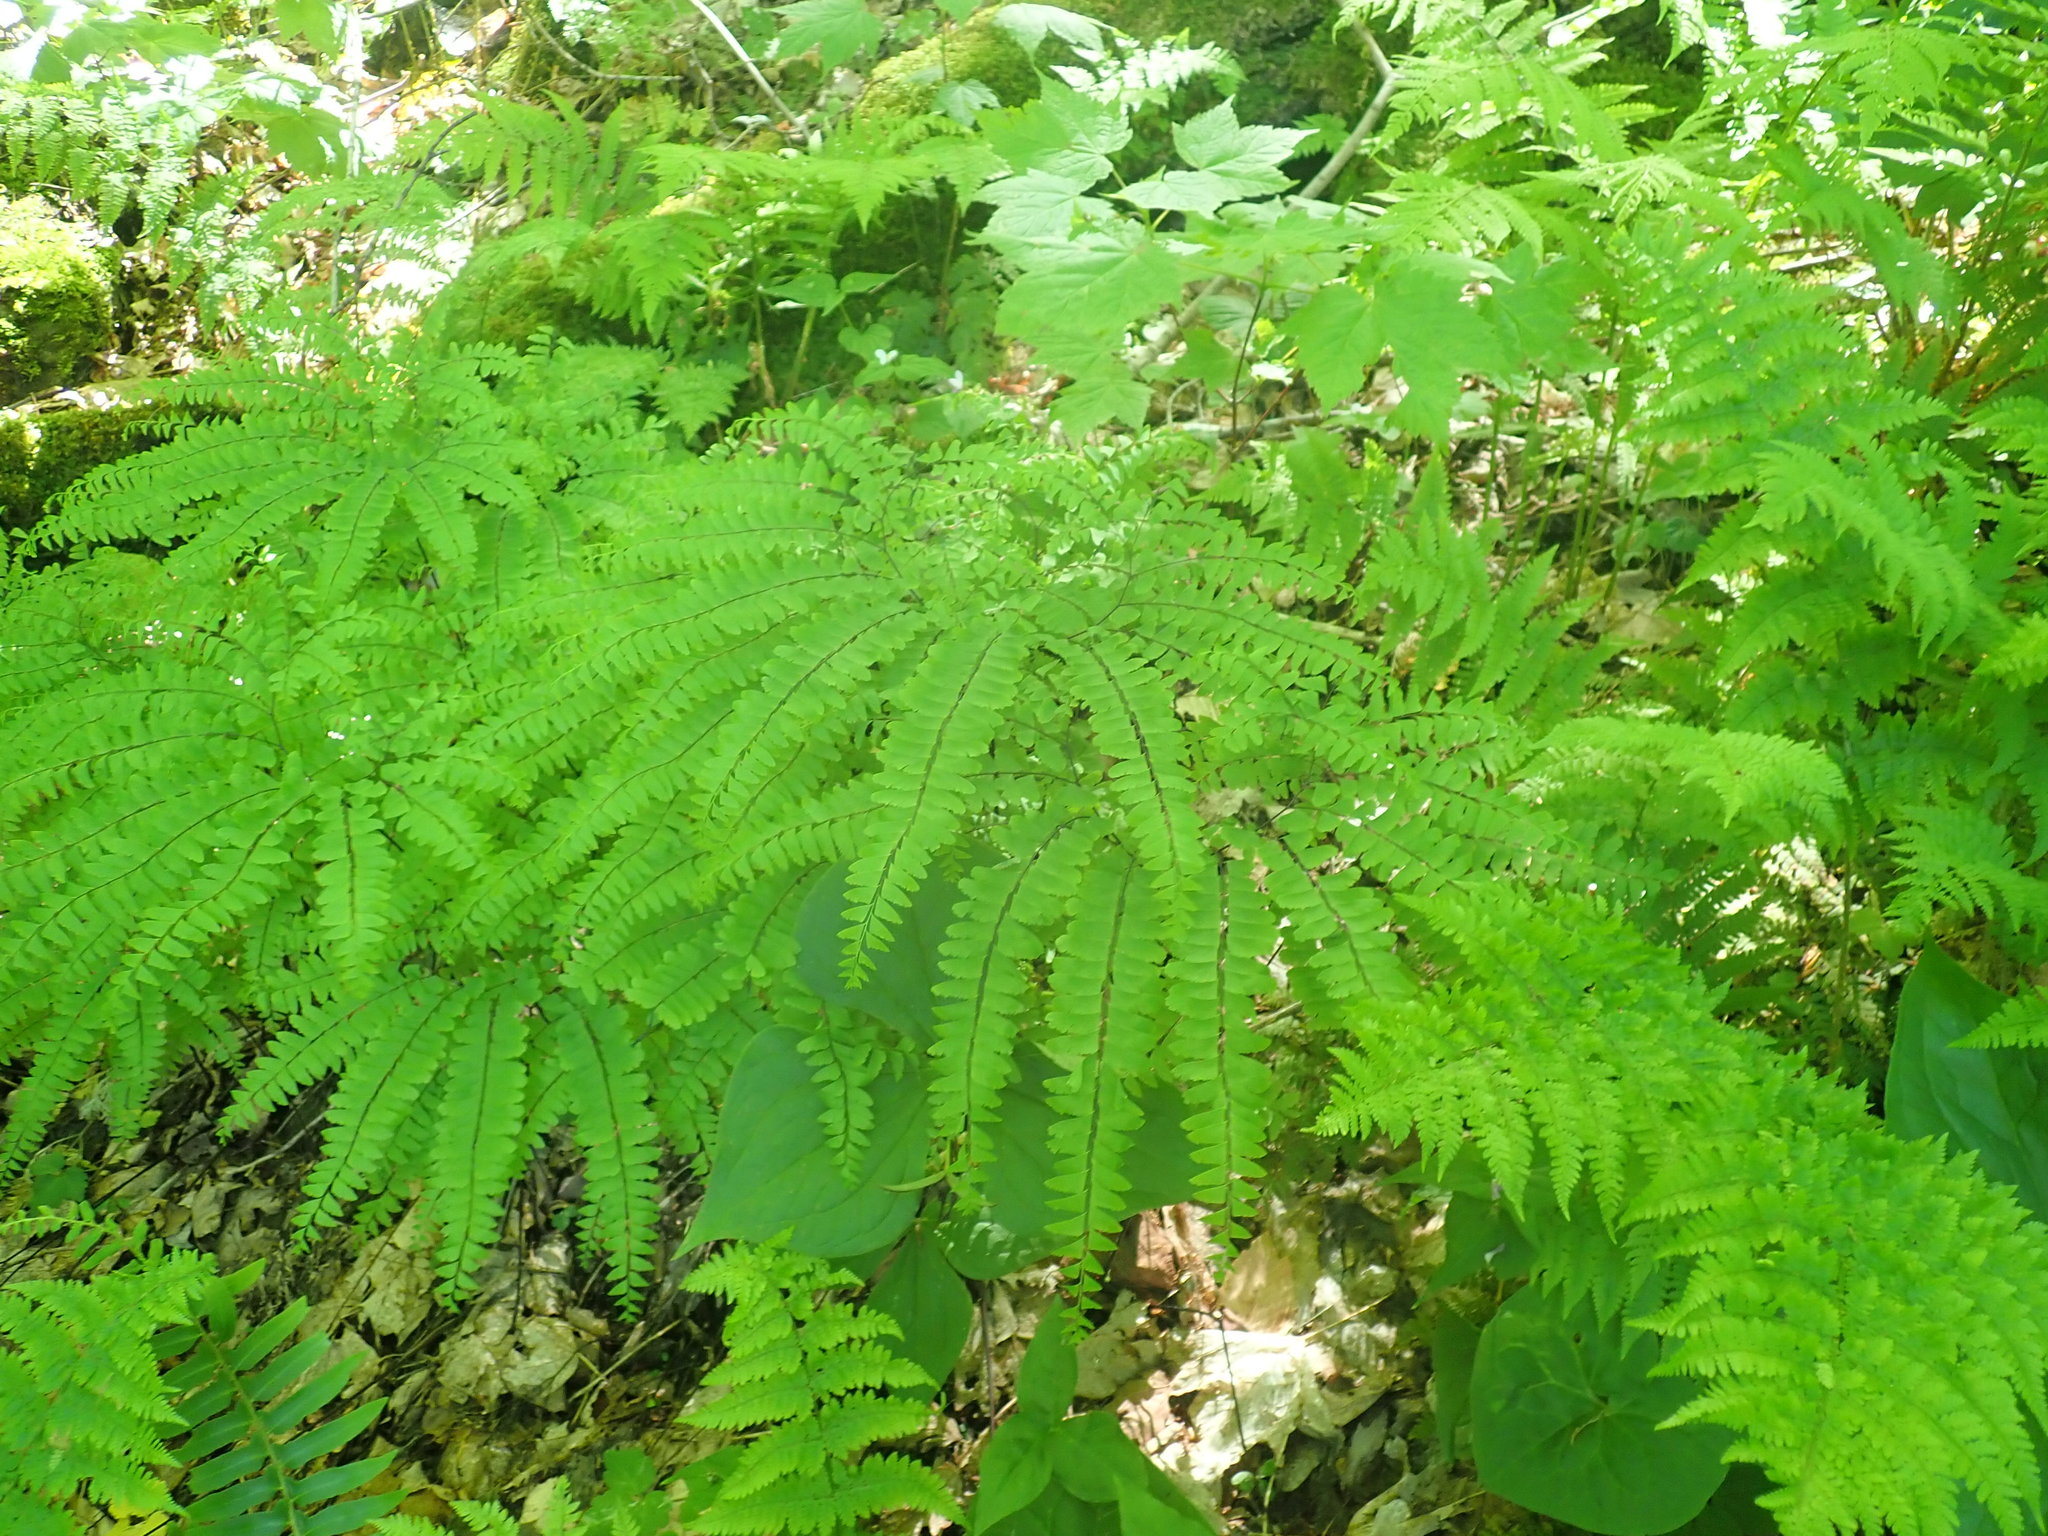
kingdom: Plantae
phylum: Tracheophyta
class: Polypodiopsida
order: Polypodiales
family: Pteridaceae
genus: Adiantum
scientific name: Adiantum pedatum
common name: Five-finger fern
